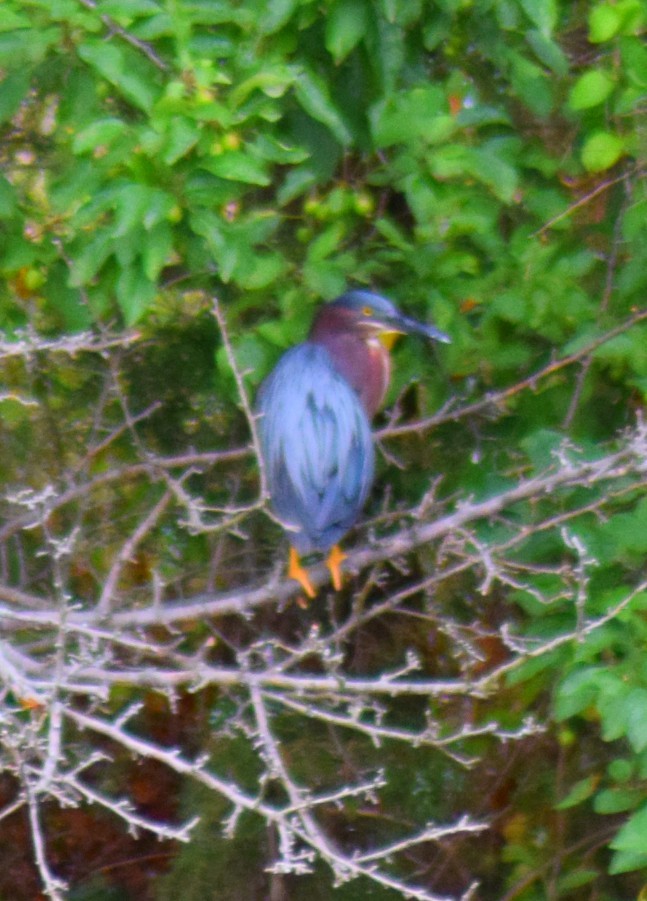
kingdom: Animalia
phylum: Chordata
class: Aves
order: Pelecaniformes
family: Ardeidae
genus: Butorides
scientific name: Butorides virescens
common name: Green heron
